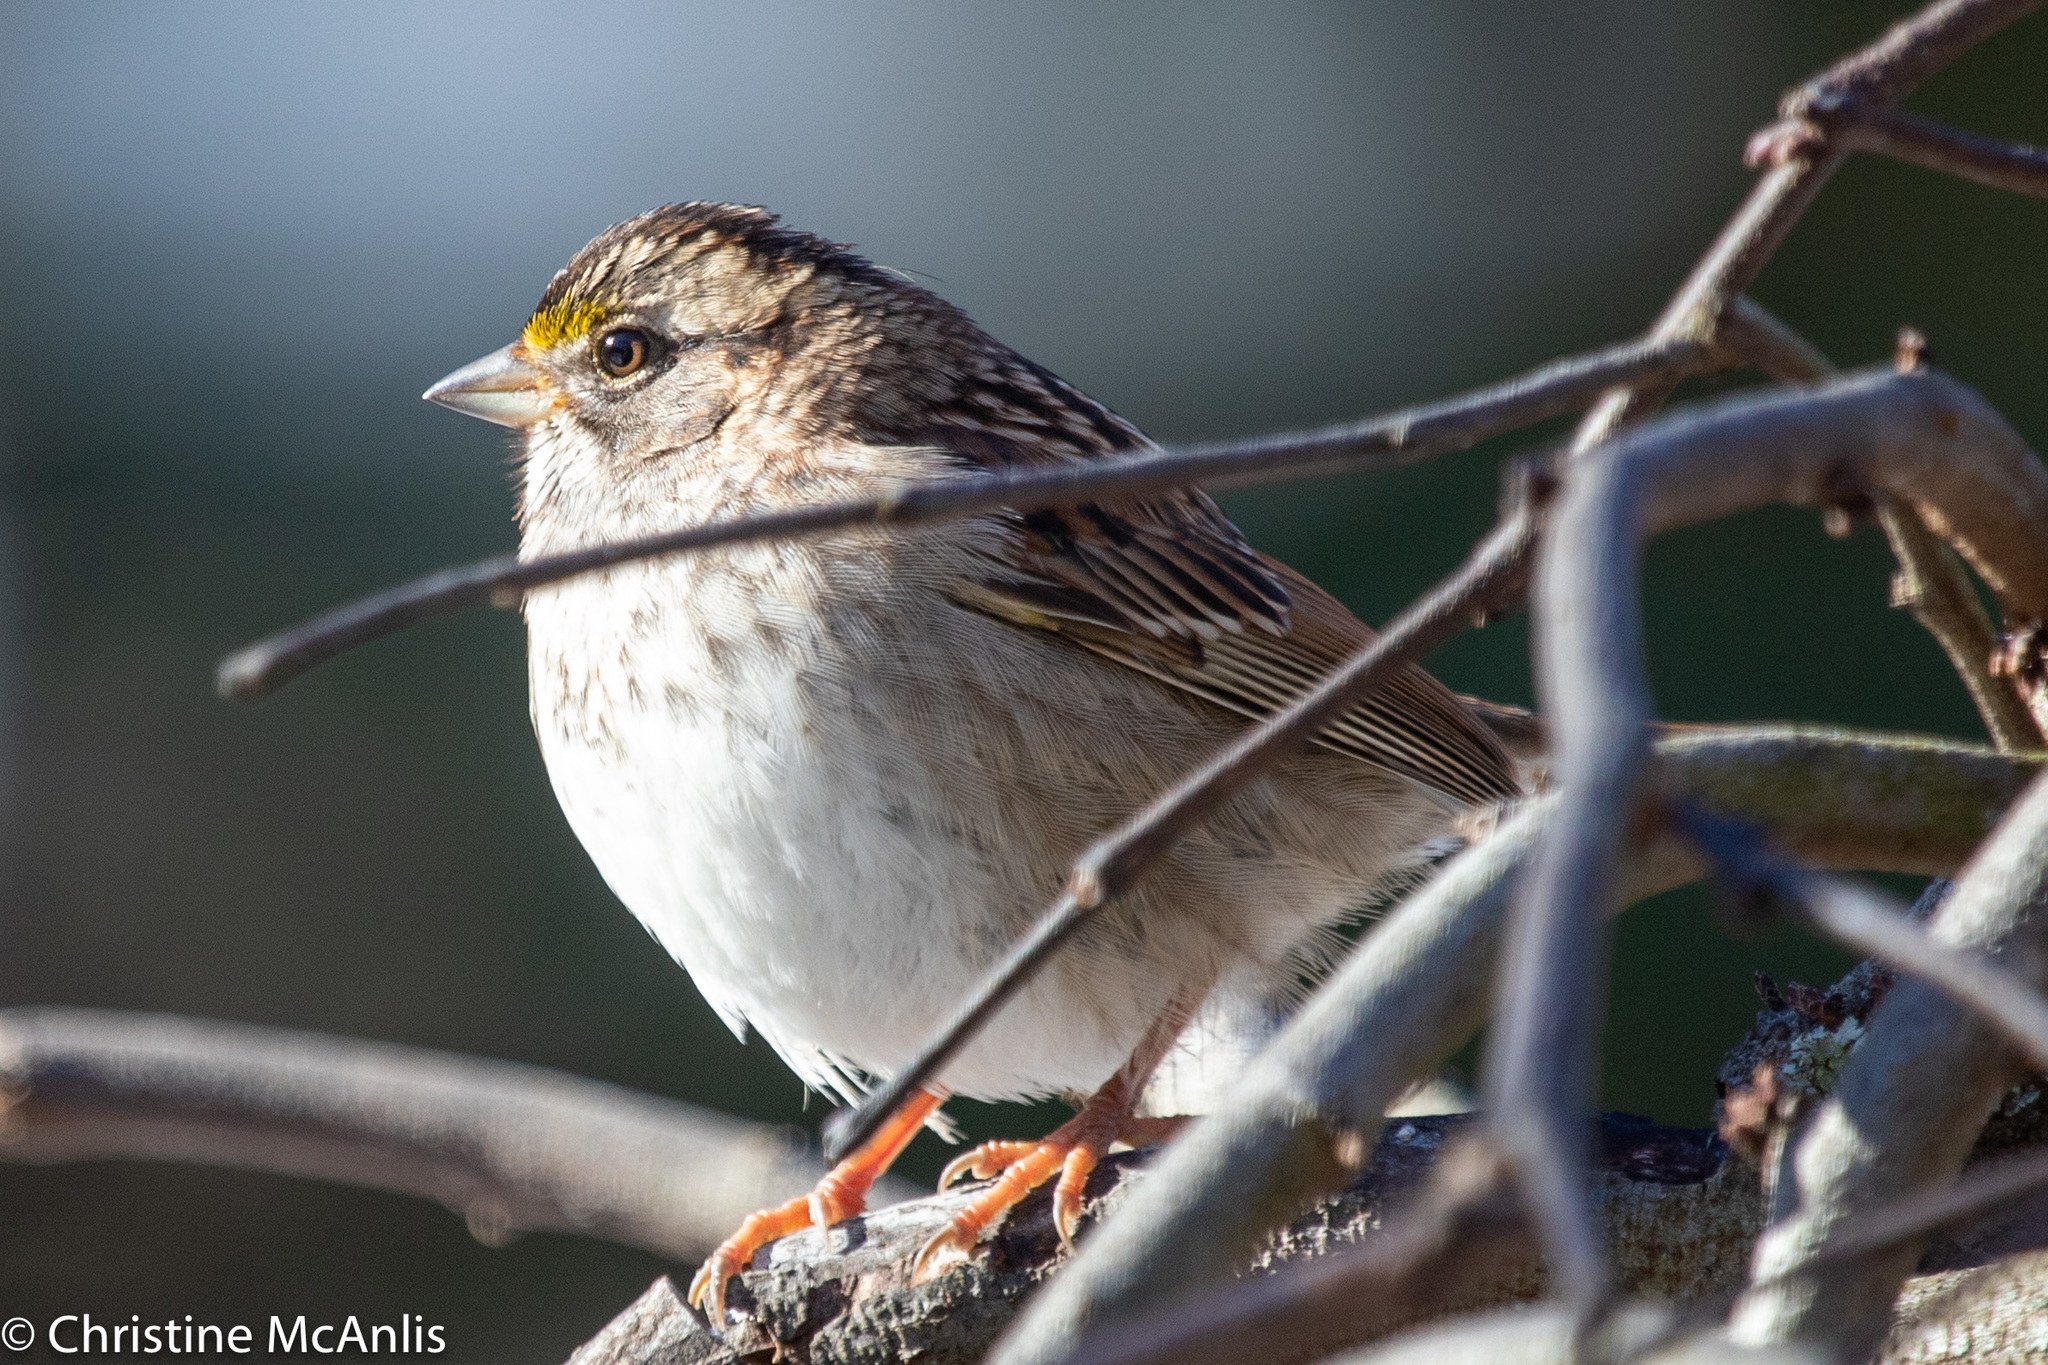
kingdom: Animalia
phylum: Chordata
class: Aves
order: Passeriformes
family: Passerellidae
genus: Zonotrichia
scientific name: Zonotrichia albicollis
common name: White-throated sparrow
